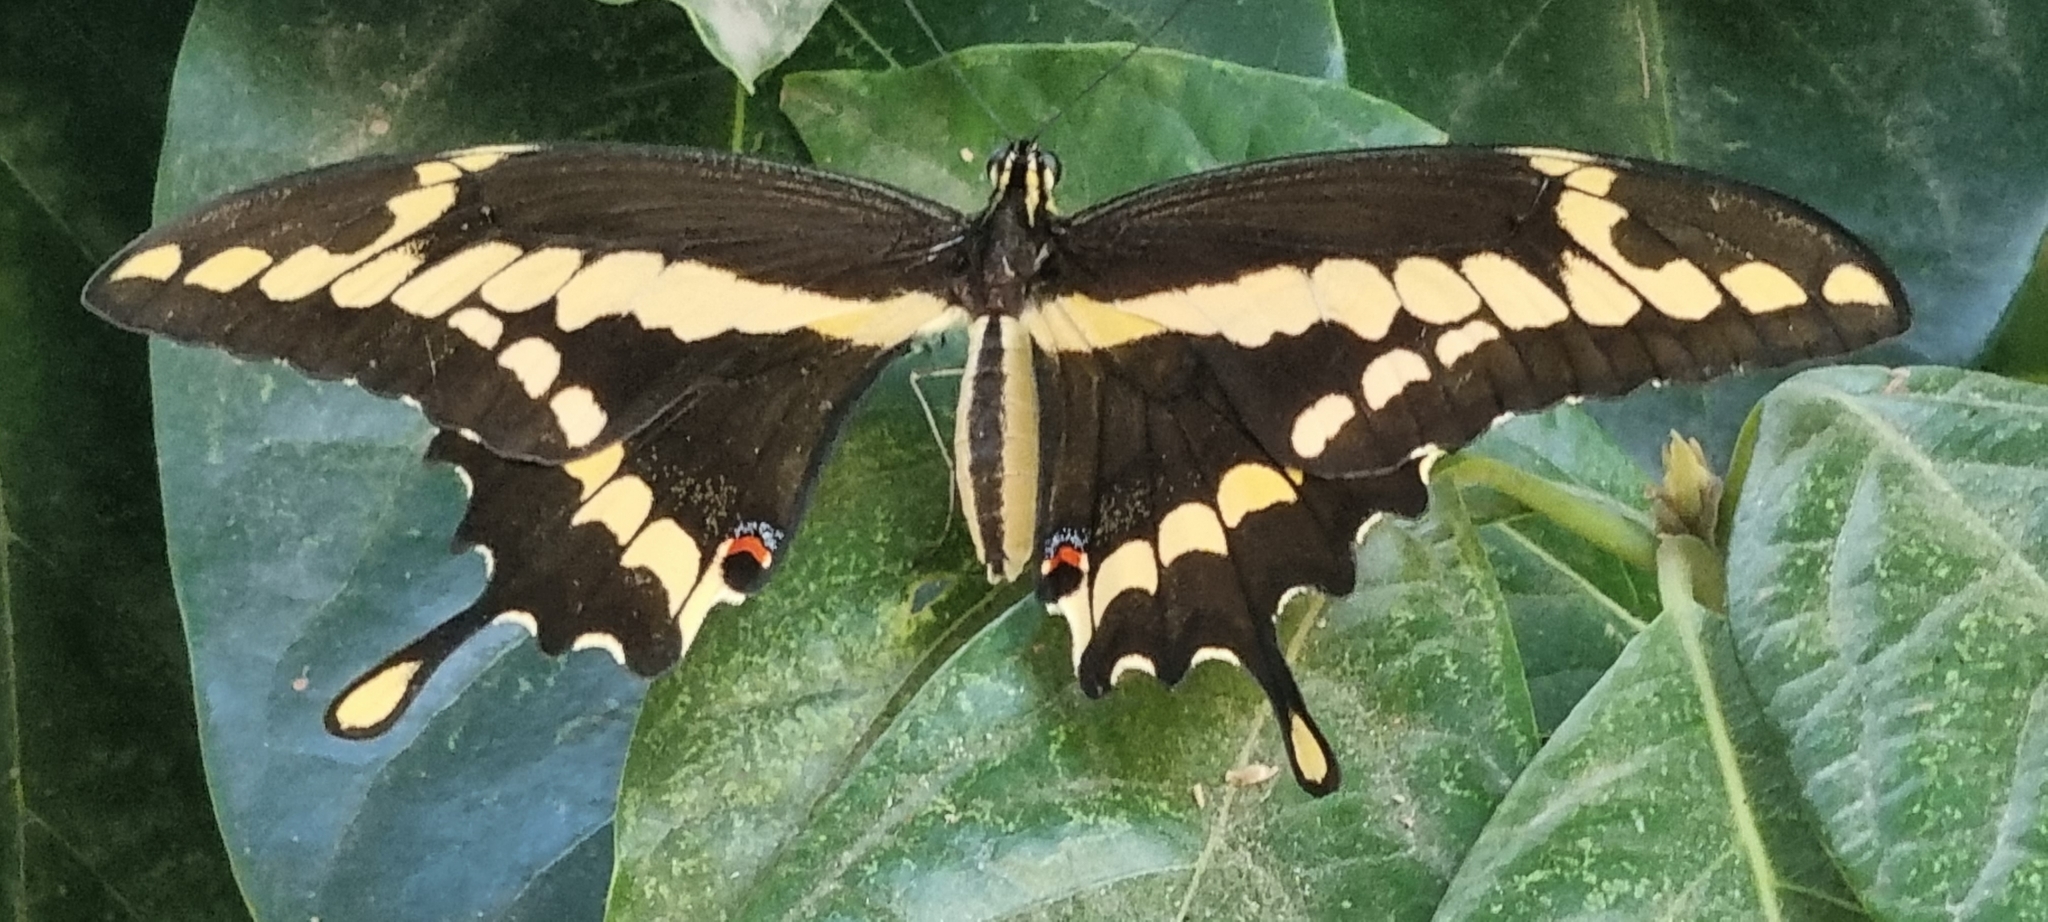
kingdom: Animalia
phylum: Arthropoda
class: Insecta
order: Lepidoptera
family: Papilionidae
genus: Papilio
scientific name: Papilio rumiko
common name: Western giant swallowtail
